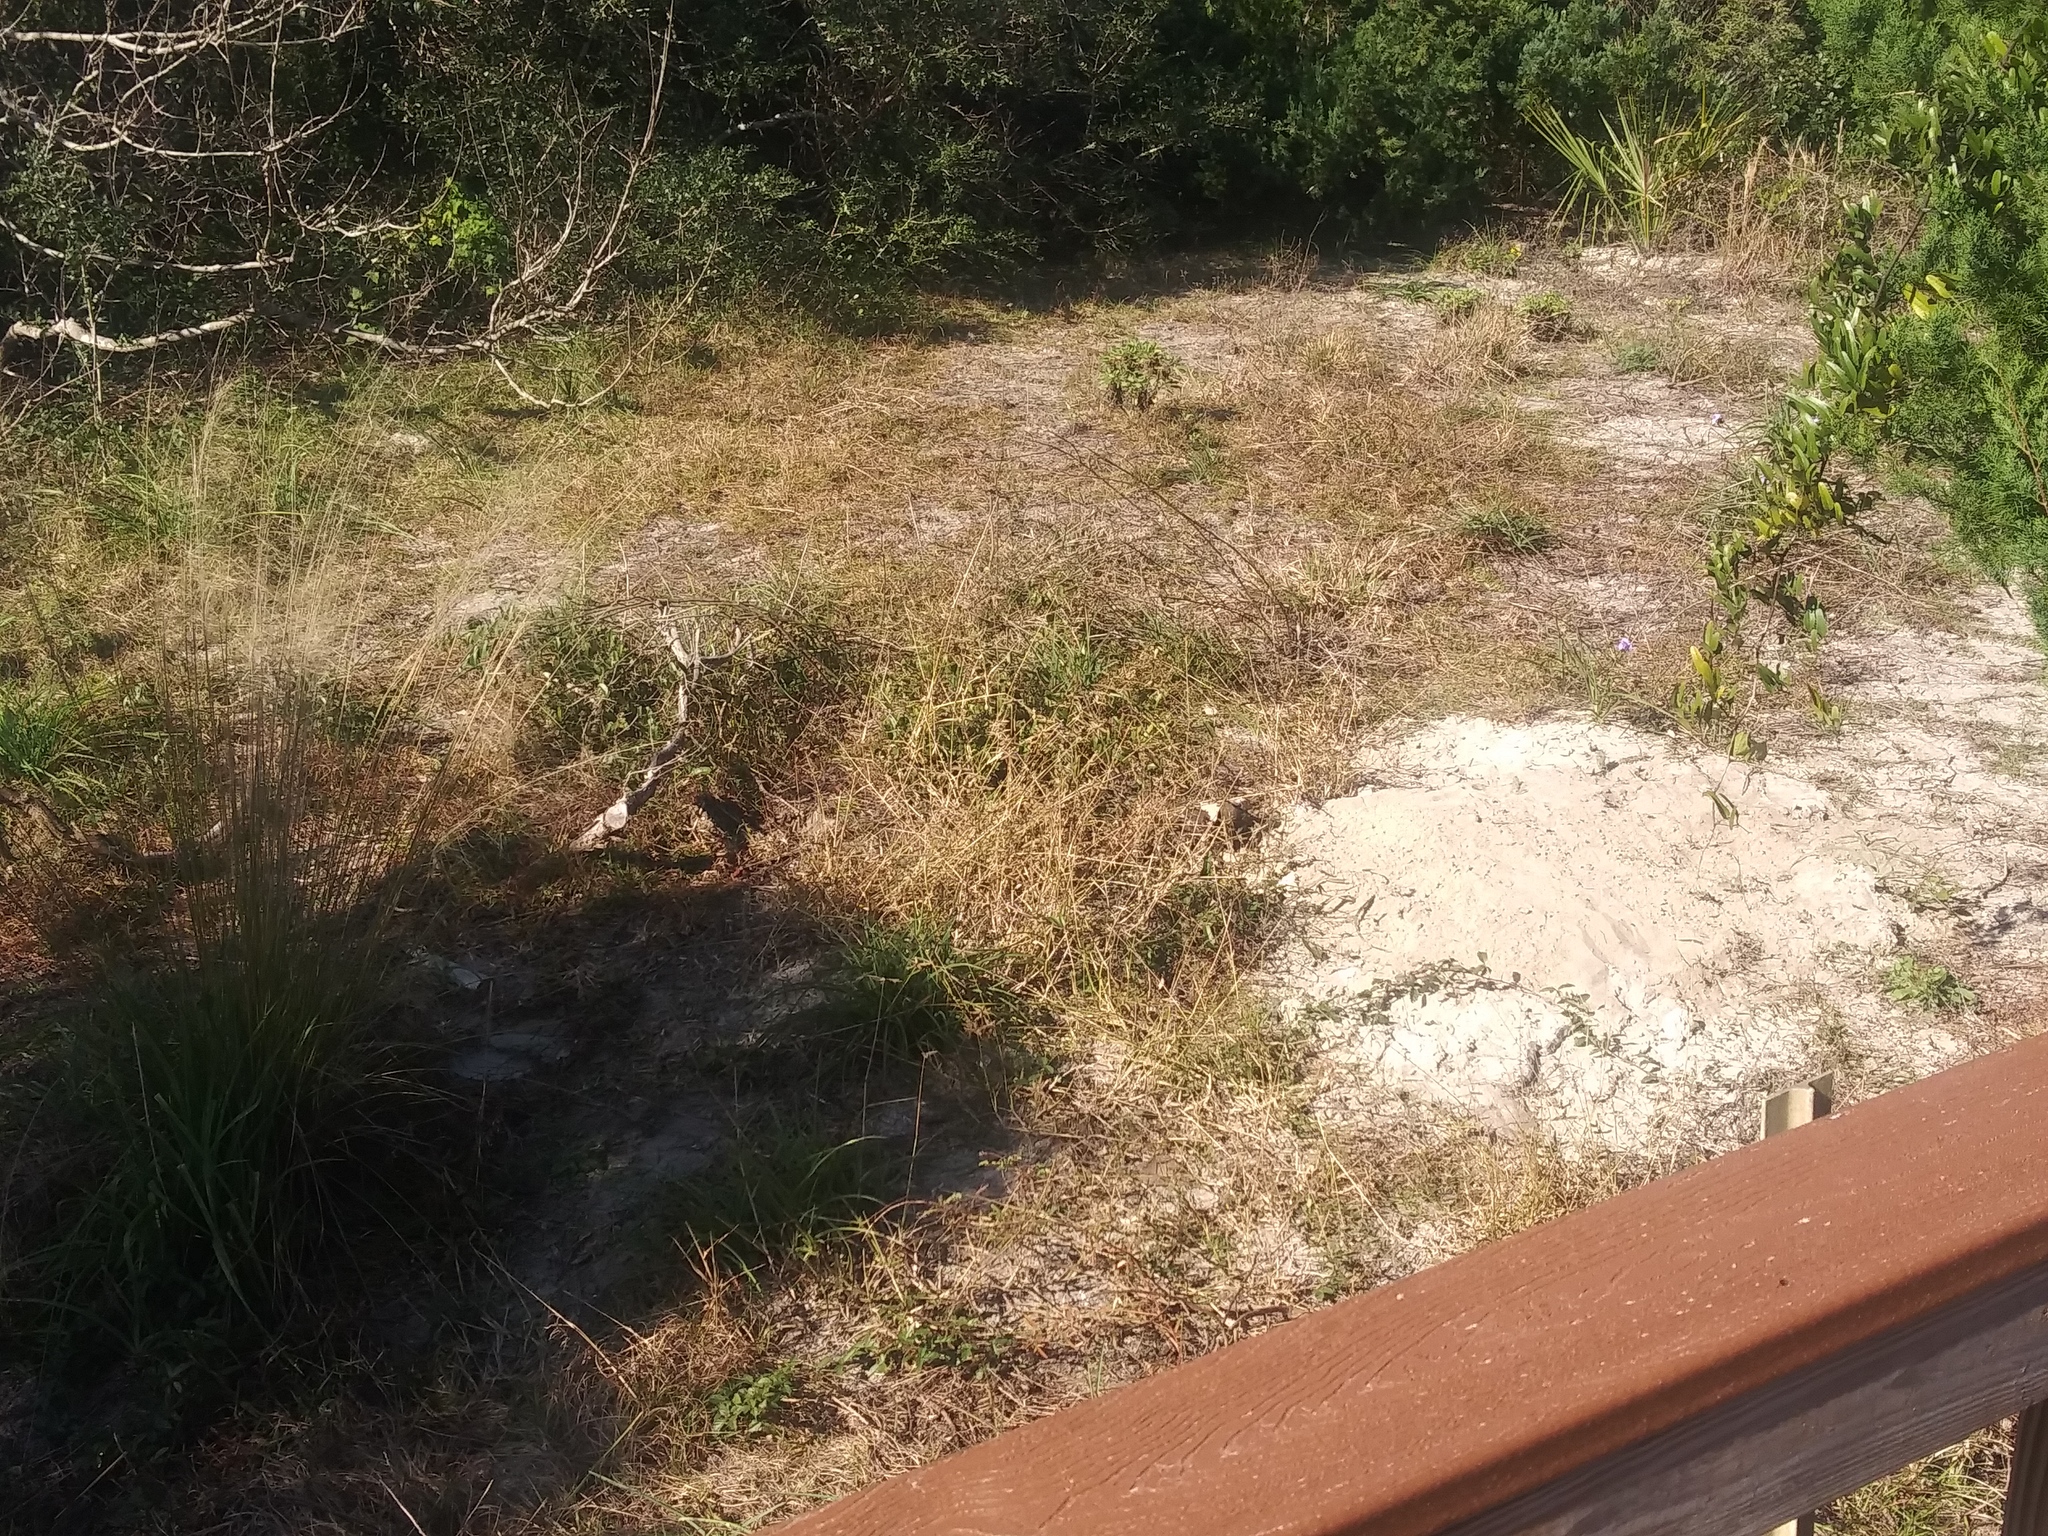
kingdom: Animalia
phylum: Chordata
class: Testudines
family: Testudinidae
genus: Gopherus
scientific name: Gopherus polyphemus
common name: Florida gopher tortoise
